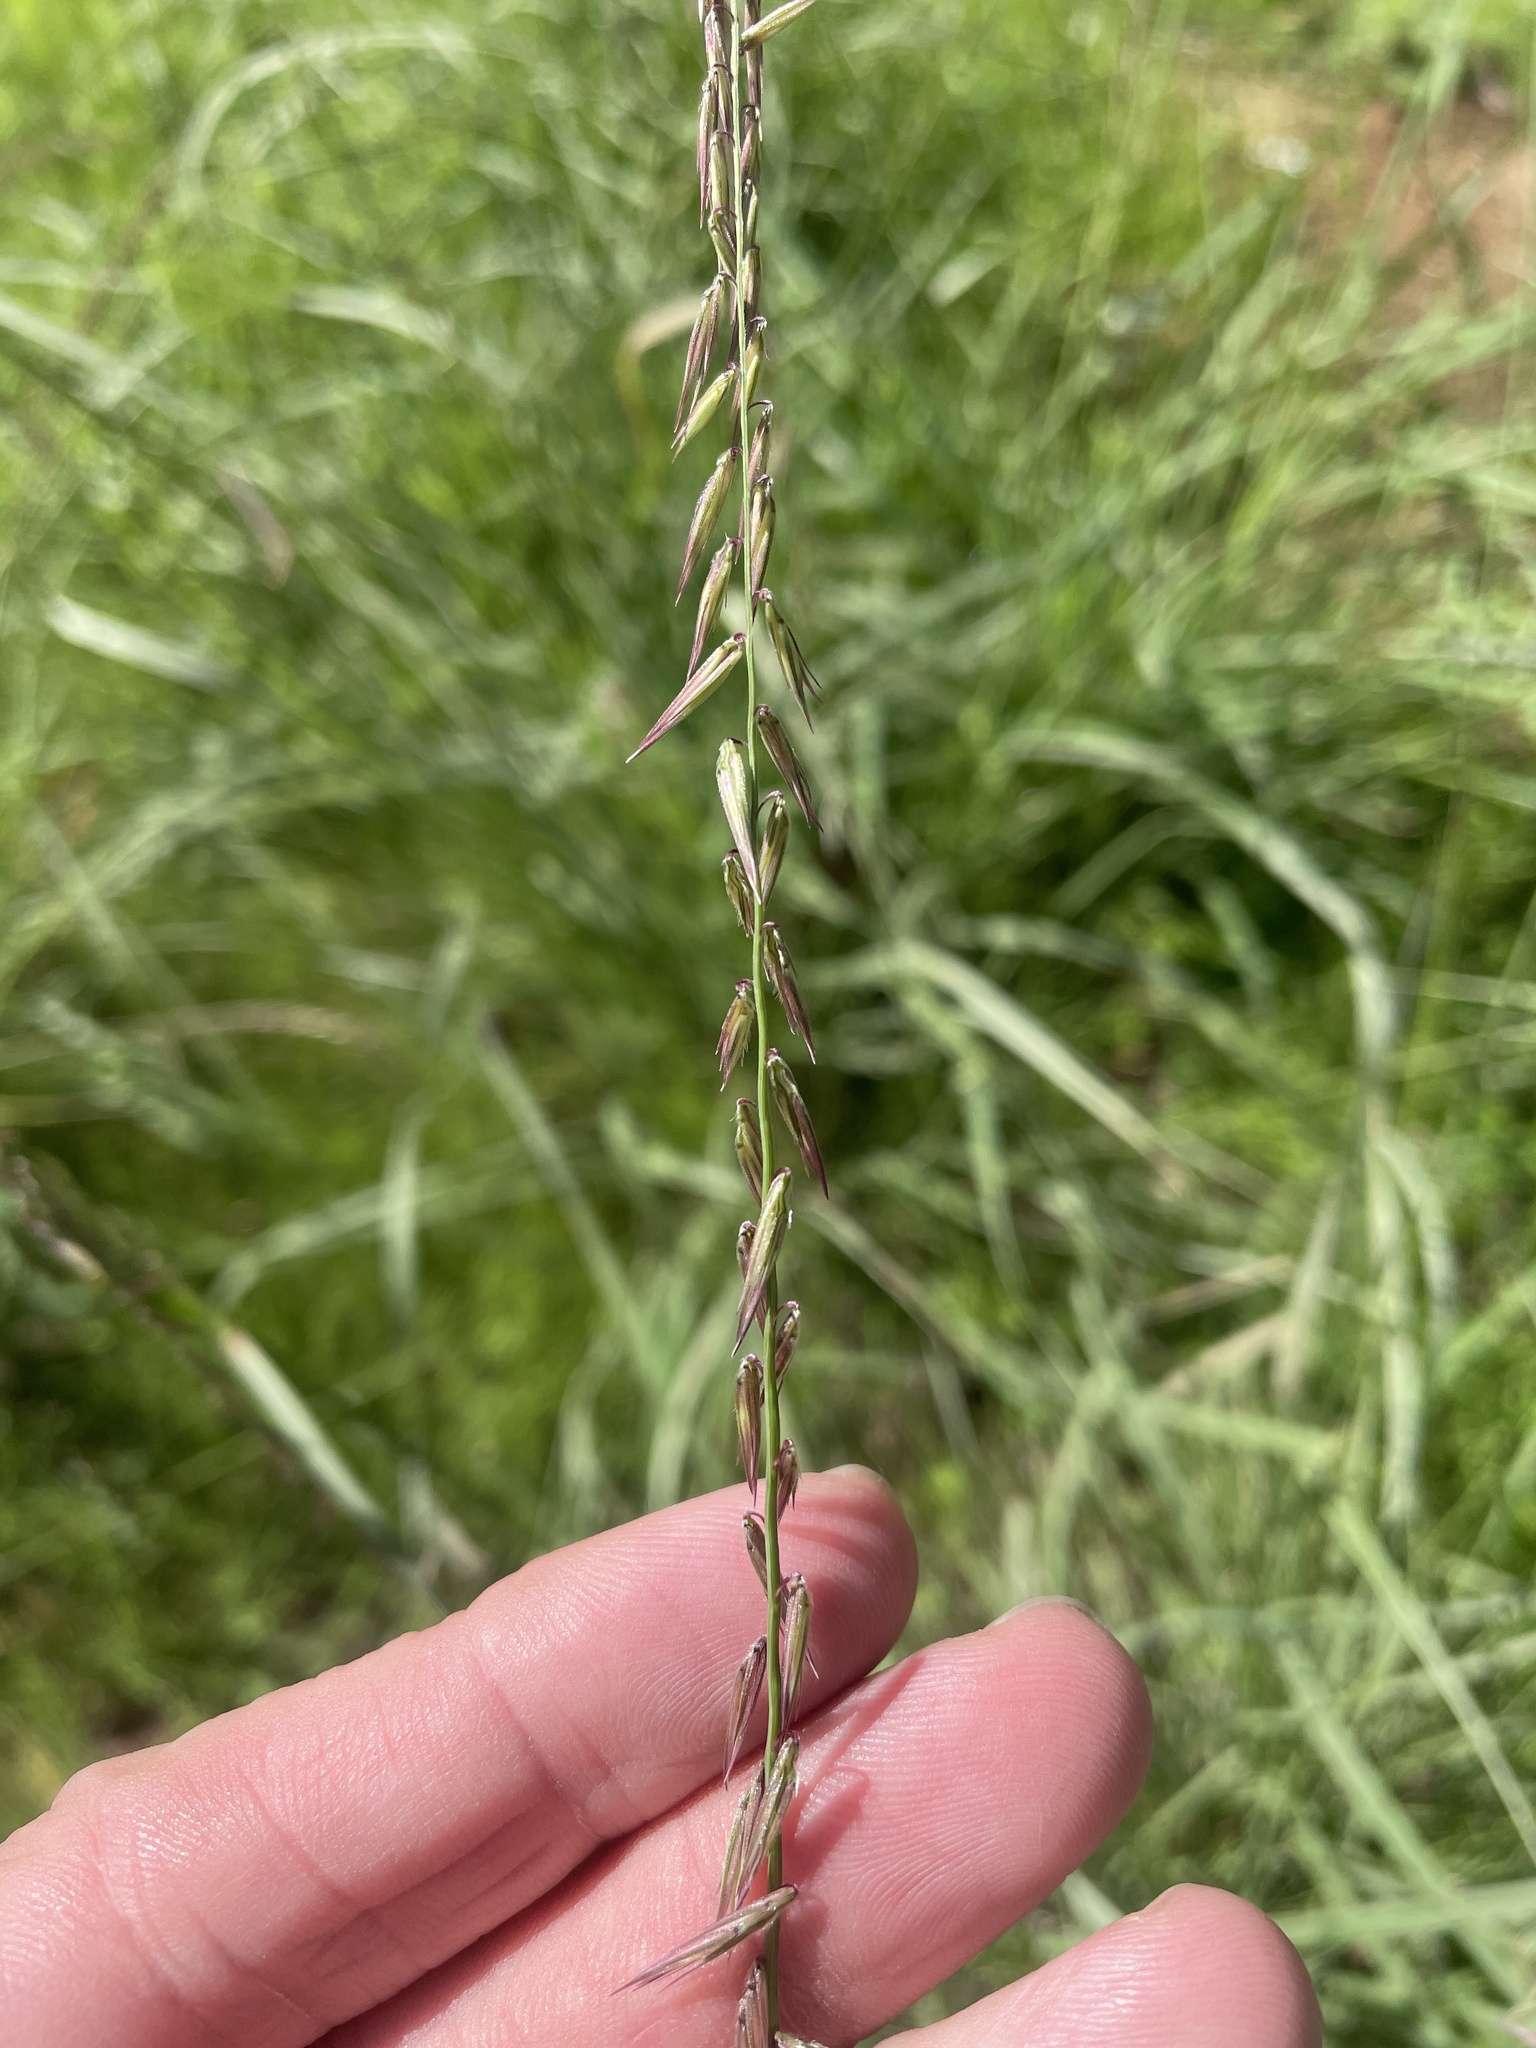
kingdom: Plantae
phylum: Tracheophyta
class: Liliopsida
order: Poales
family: Poaceae
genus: Bouteloua
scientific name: Bouteloua curtipendula
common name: Side-oats grama
